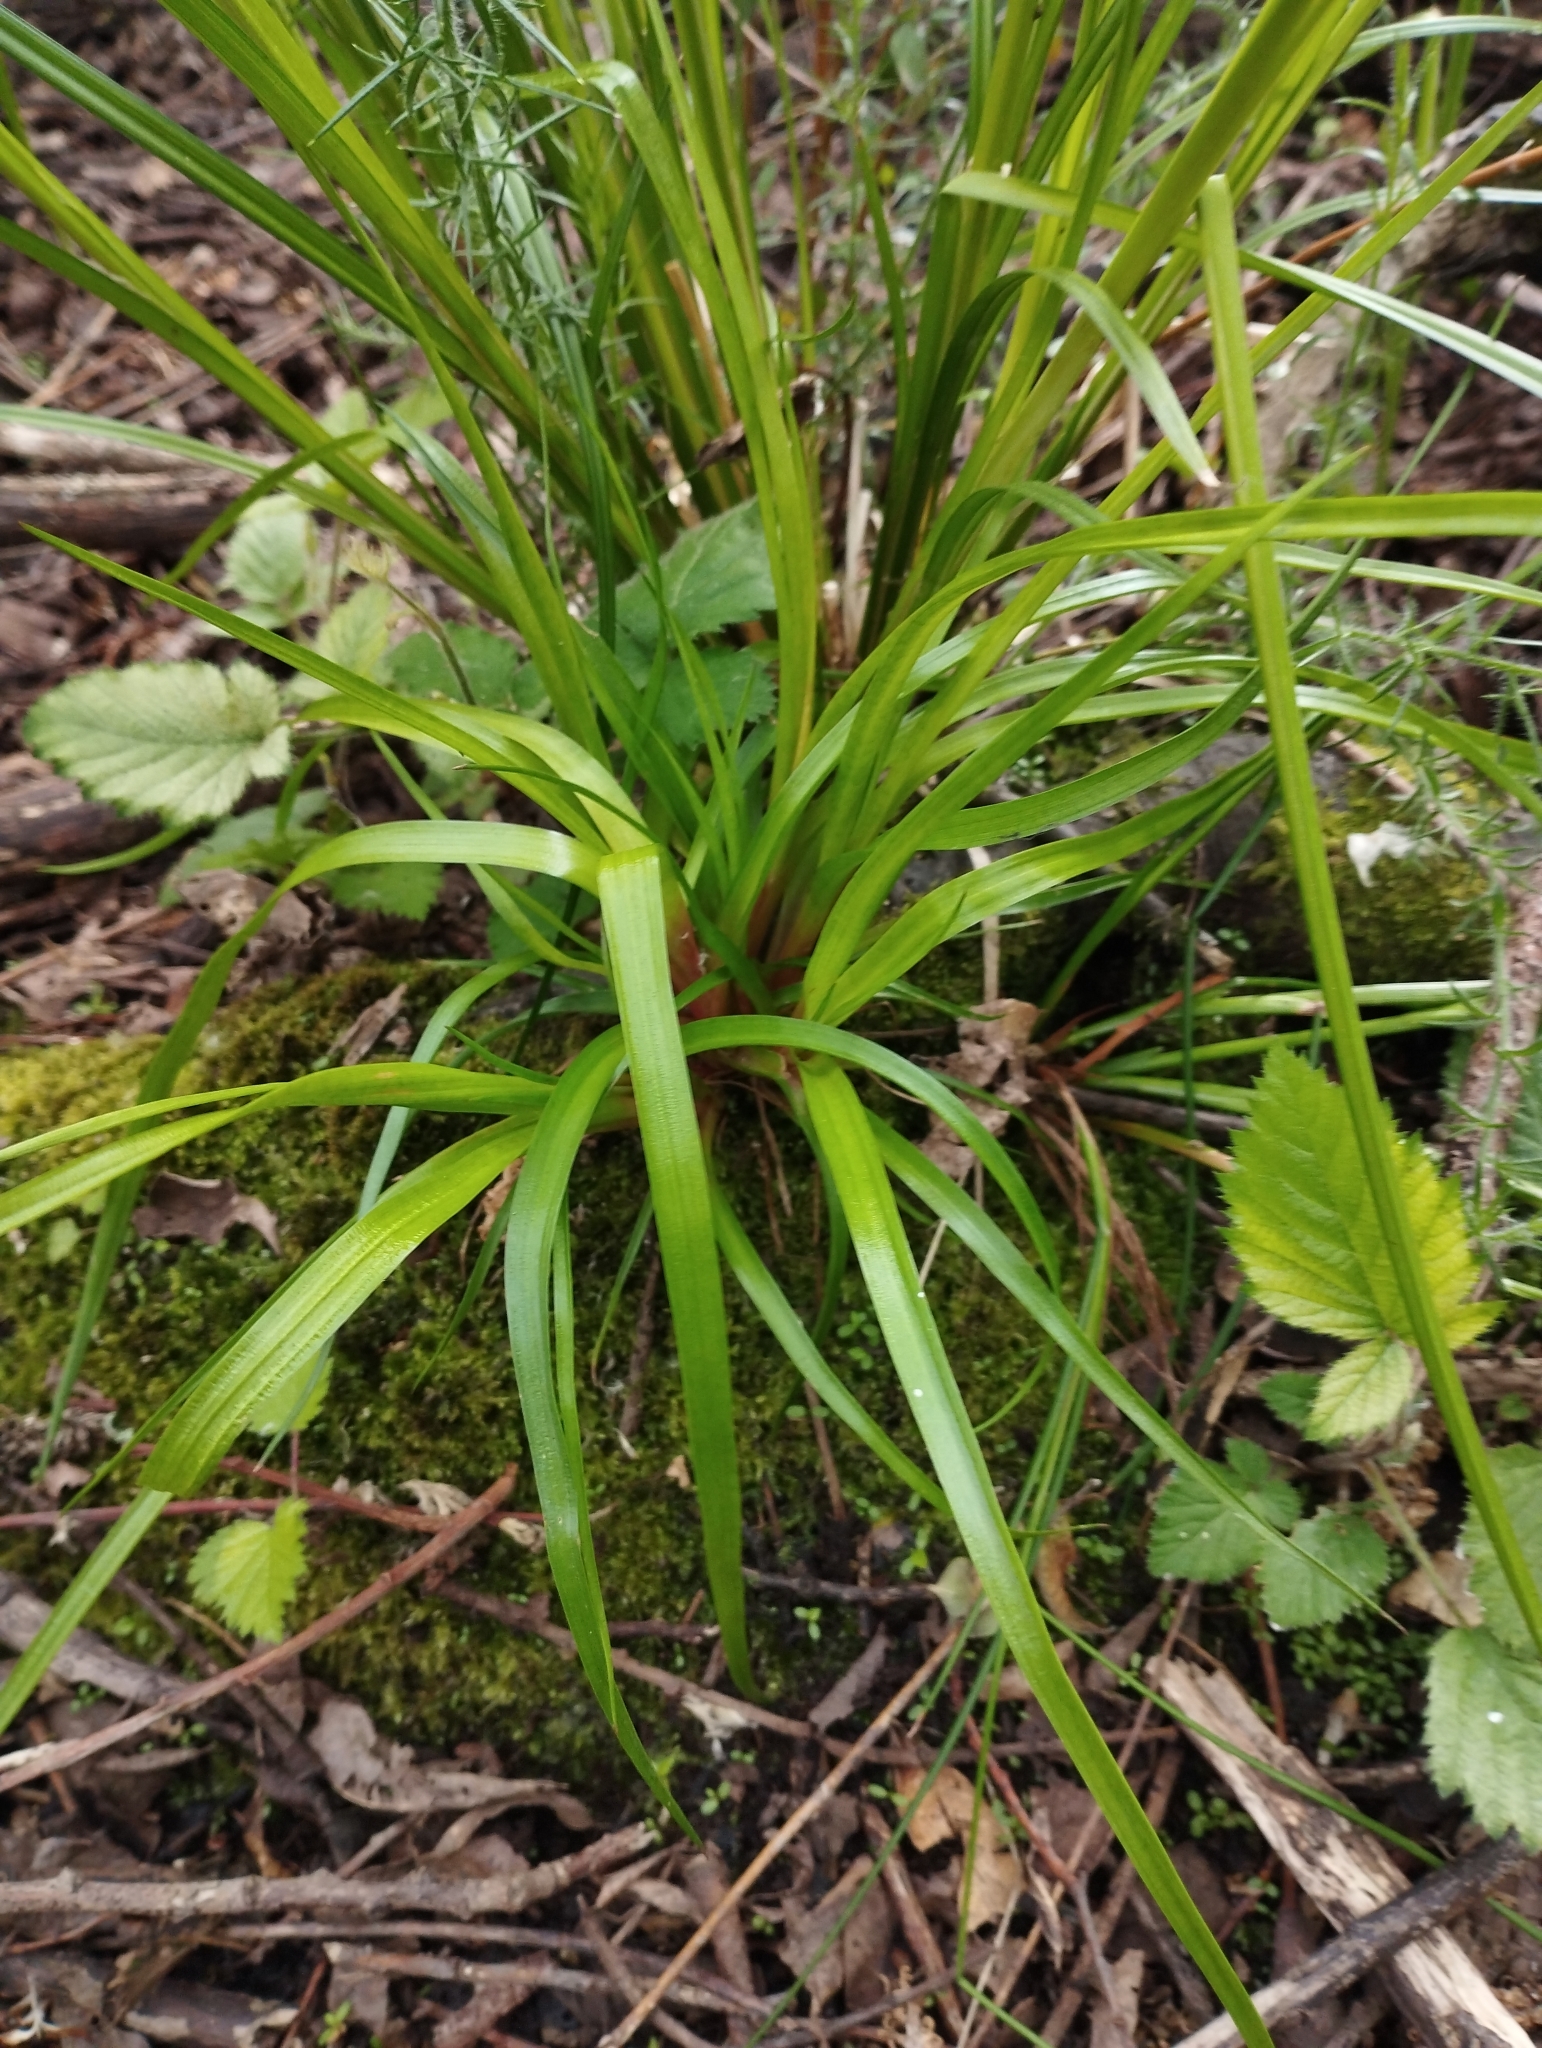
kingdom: Plantae
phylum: Tracheophyta
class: Liliopsida
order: Poales
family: Juncaceae
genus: Juncus
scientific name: Juncus planifolius
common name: Broadleaf rush
